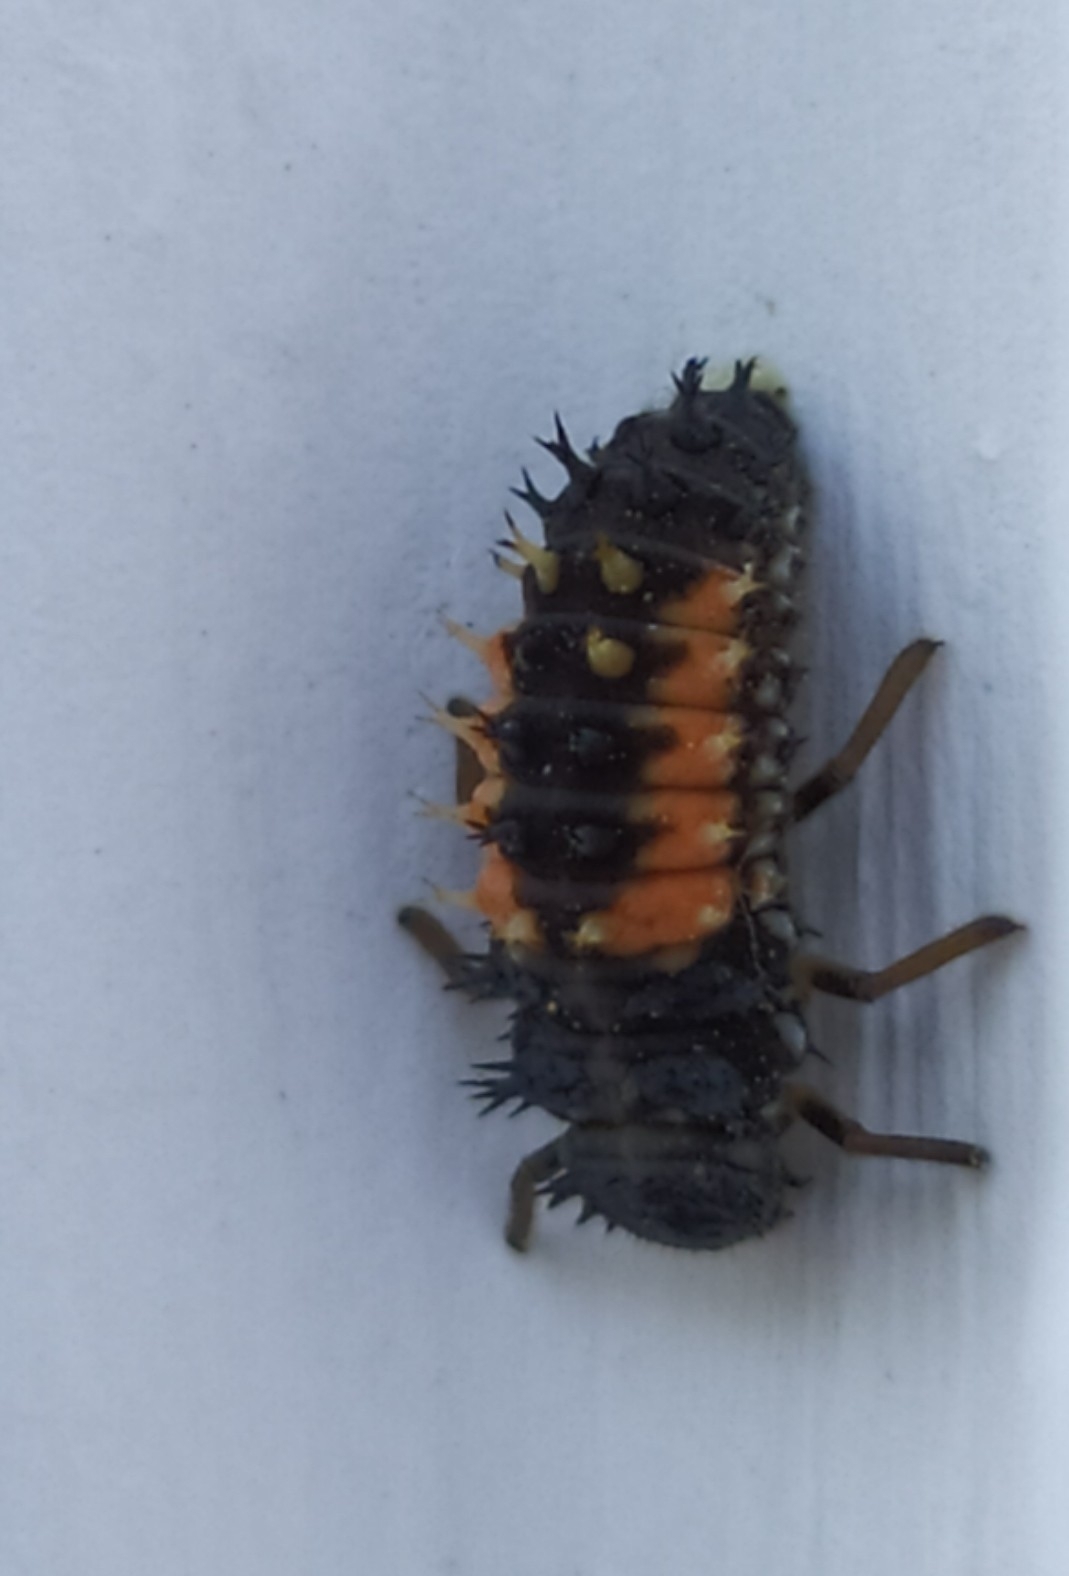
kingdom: Animalia
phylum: Arthropoda
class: Insecta
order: Coleoptera
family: Coccinellidae
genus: Harmonia
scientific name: Harmonia axyridis
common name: Harlequin ladybird
